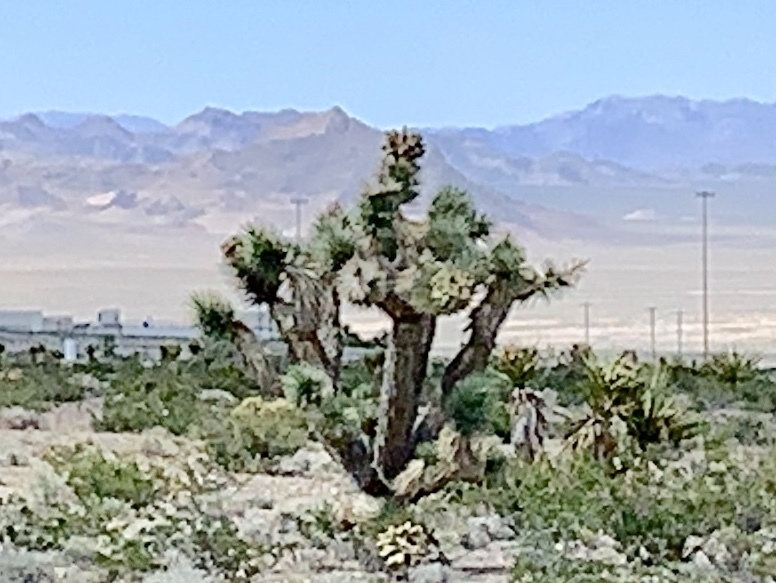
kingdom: Plantae
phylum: Tracheophyta
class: Liliopsida
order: Asparagales
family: Asparagaceae
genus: Yucca
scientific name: Yucca brevifolia
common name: Joshua tree
